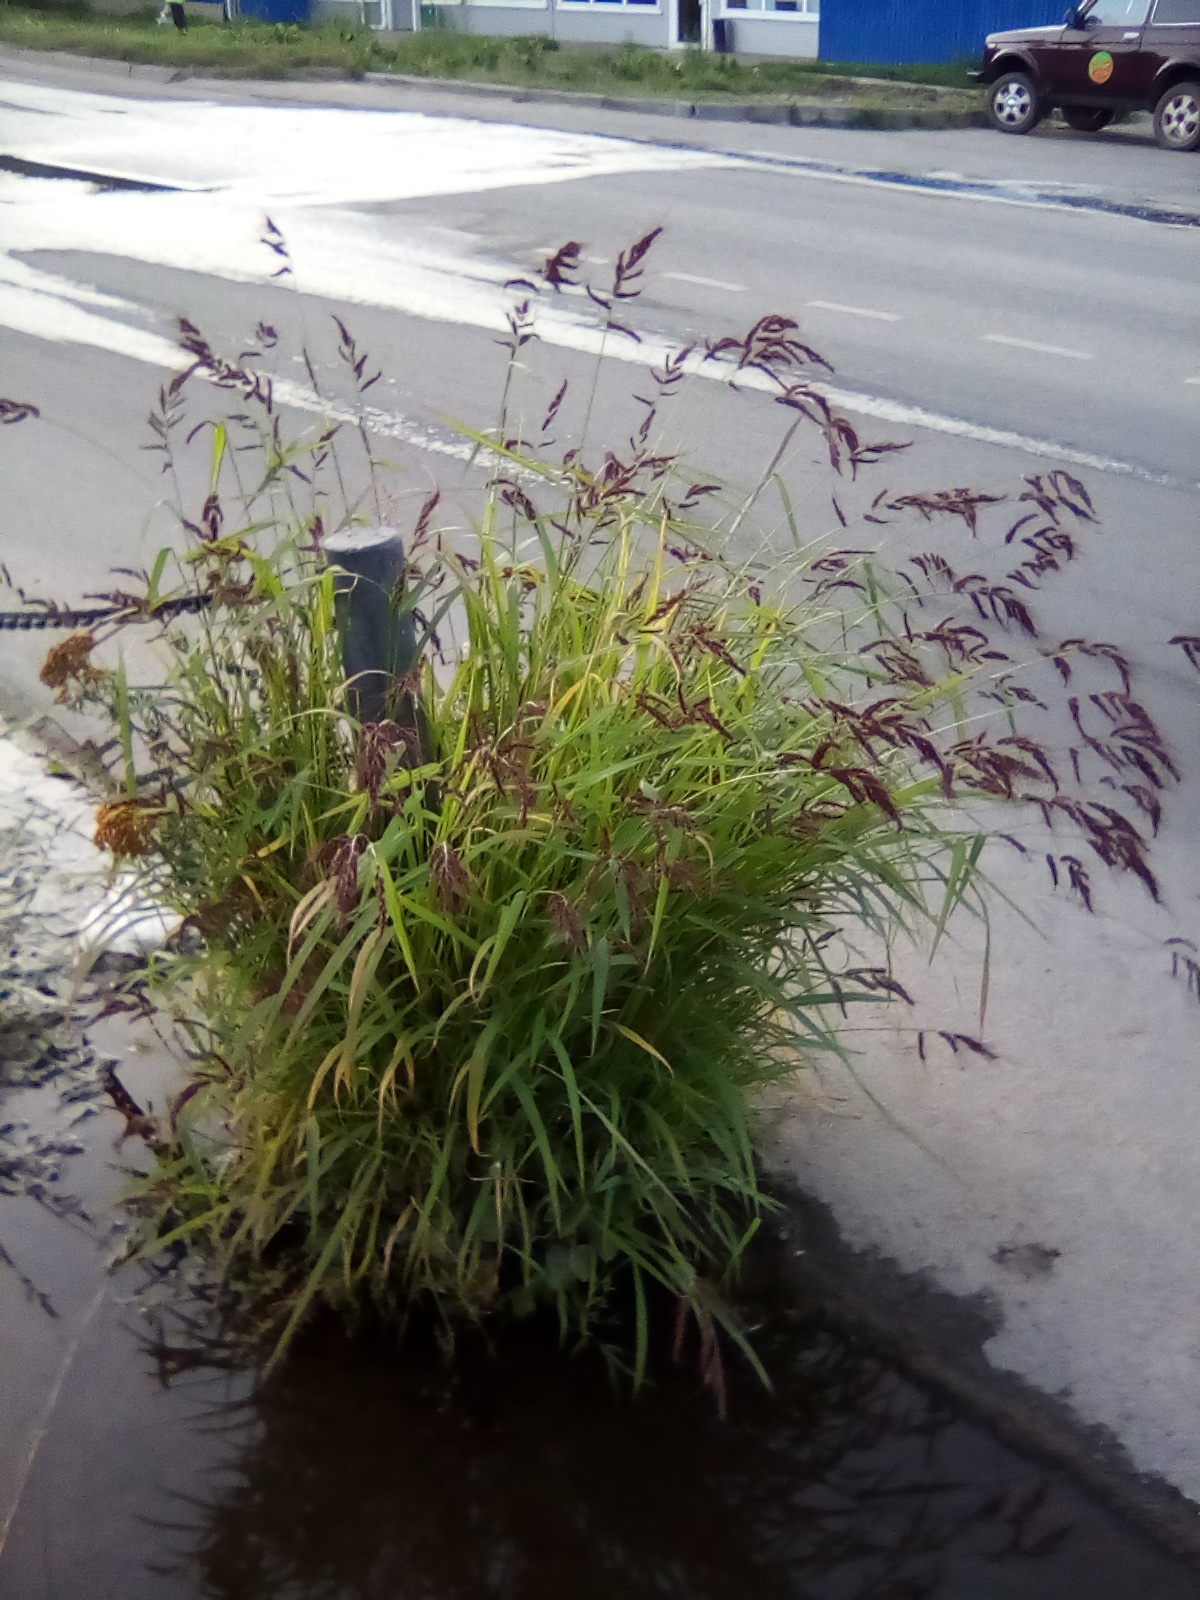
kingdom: Plantae
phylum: Tracheophyta
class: Liliopsida
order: Poales
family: Poaceae
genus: Echinochloa
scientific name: Echinochloa crus-galli
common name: Cockspur
